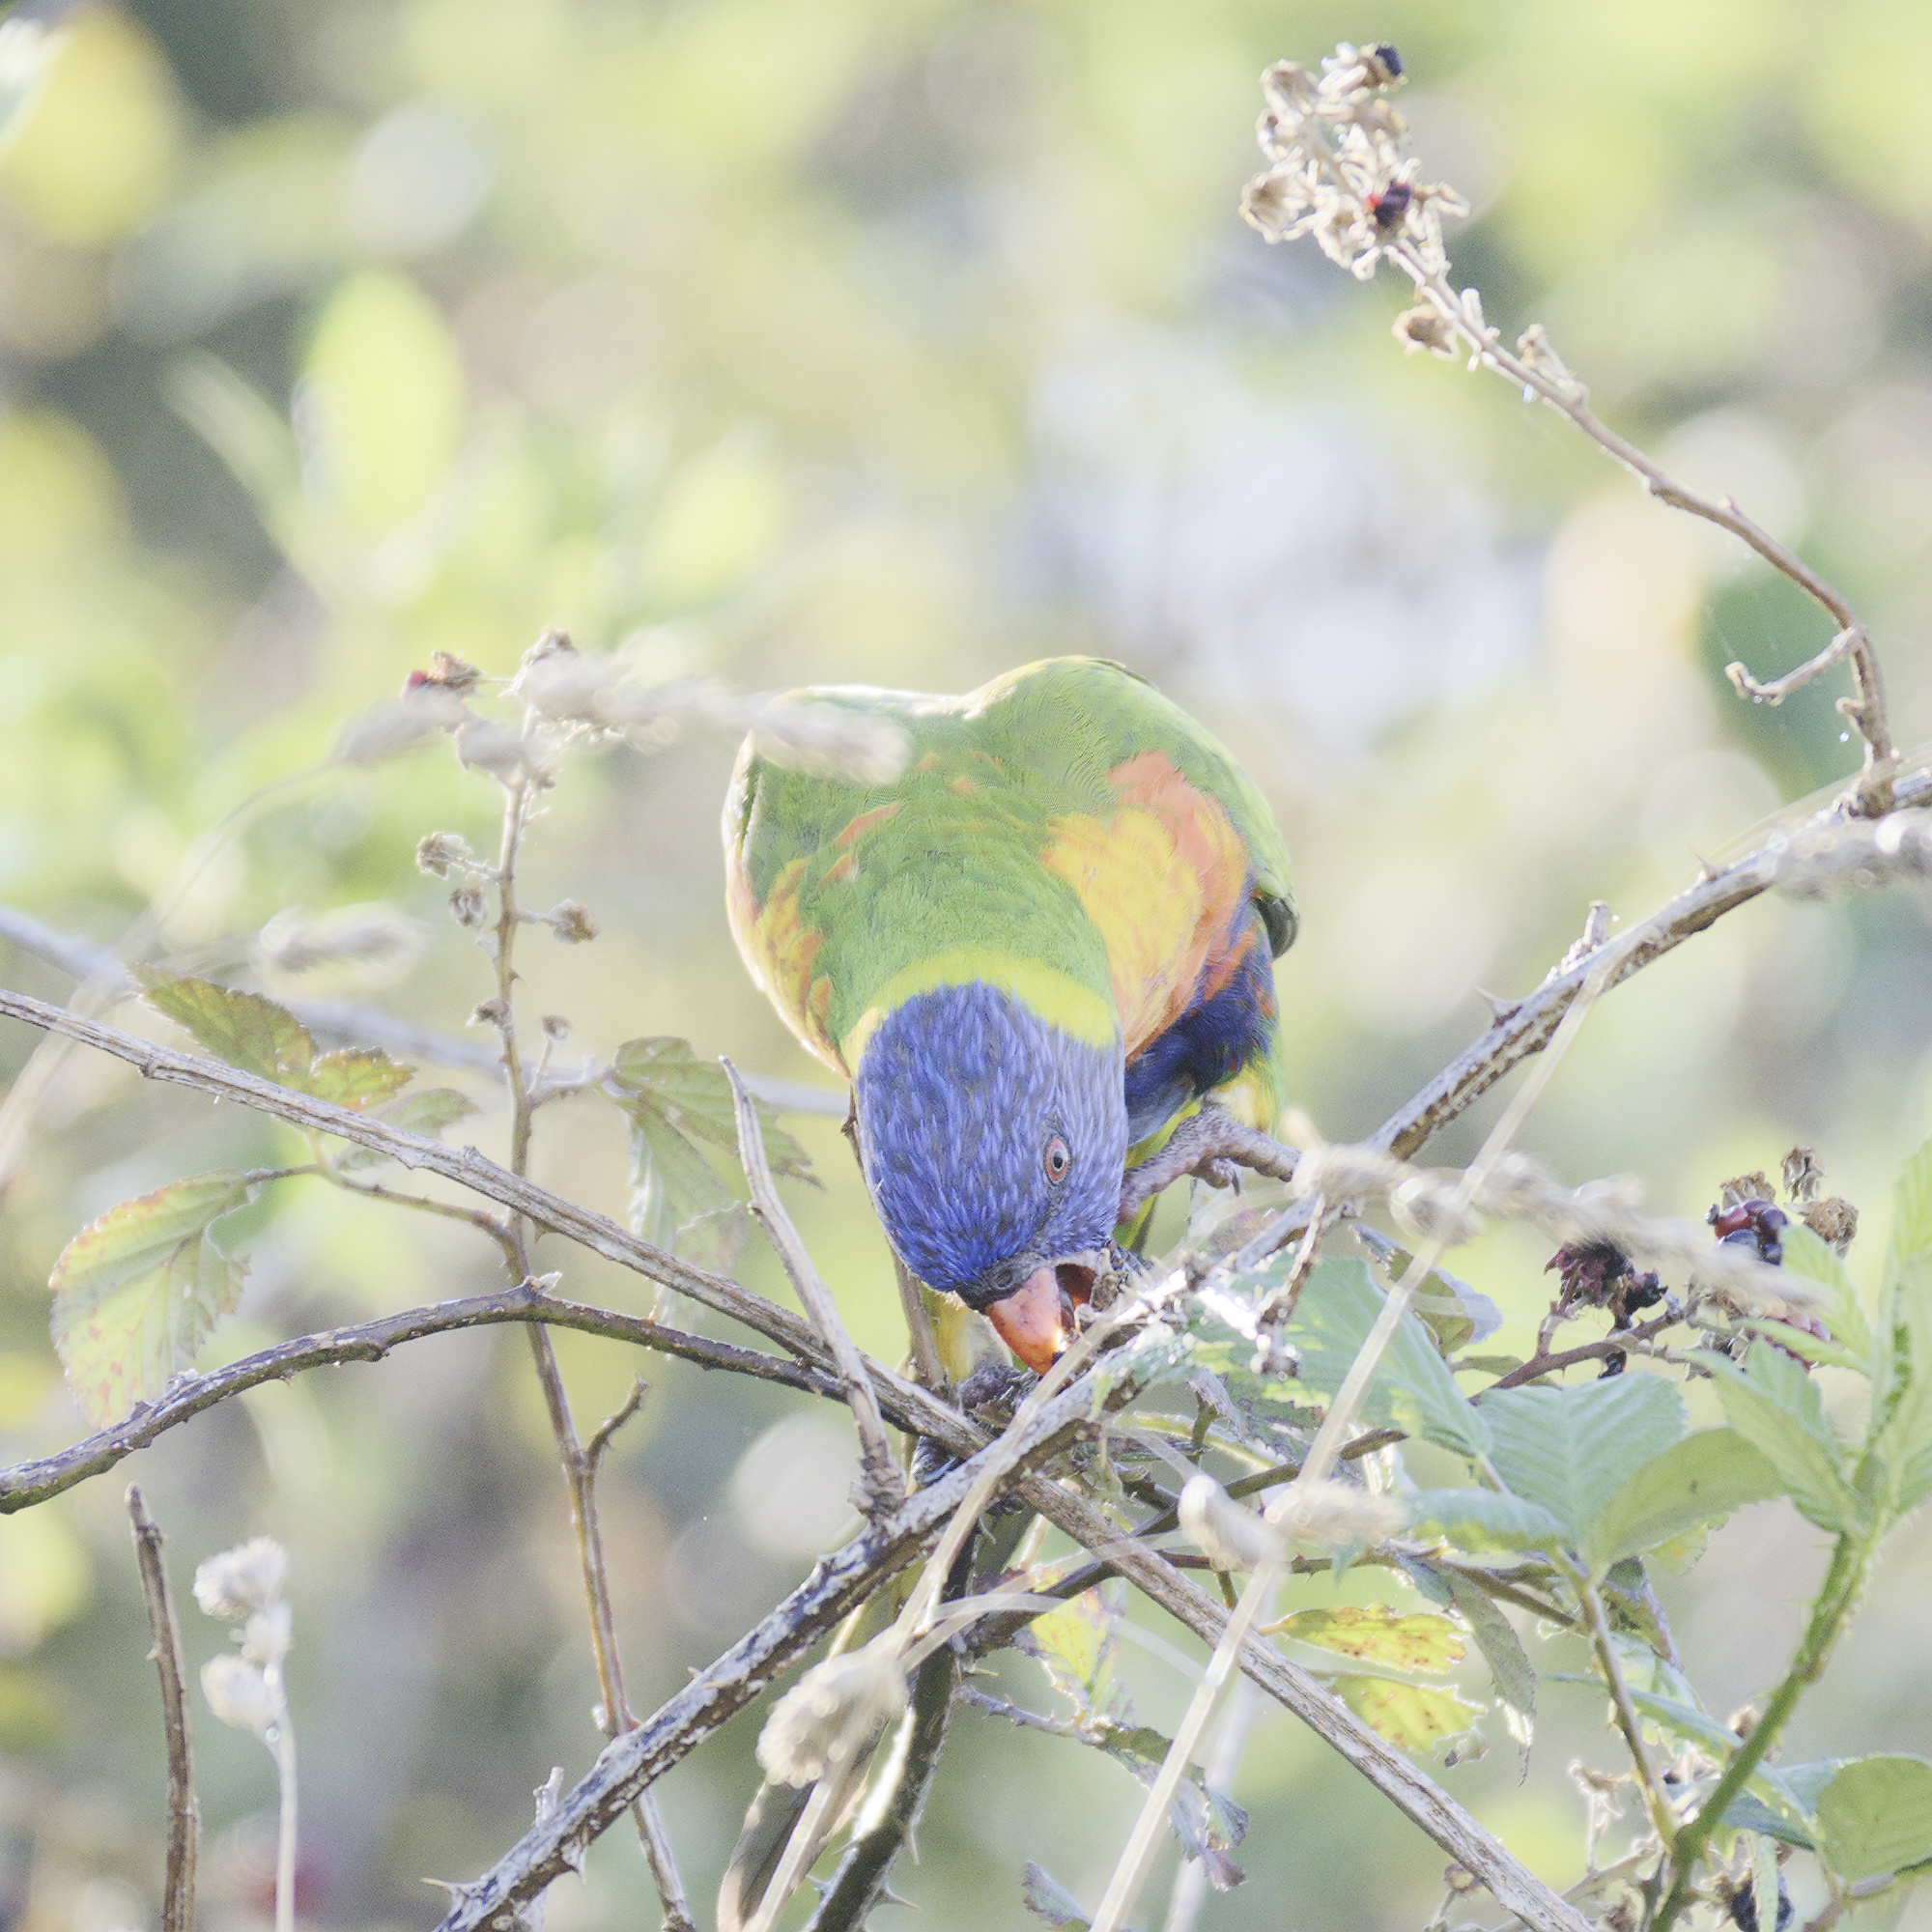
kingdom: Animalia
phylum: Chordata
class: Aves
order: Psittaciformes
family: Psittacidae
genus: Trichoglossus
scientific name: Trichoglossus haematodus
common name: Coconut lorikeet
